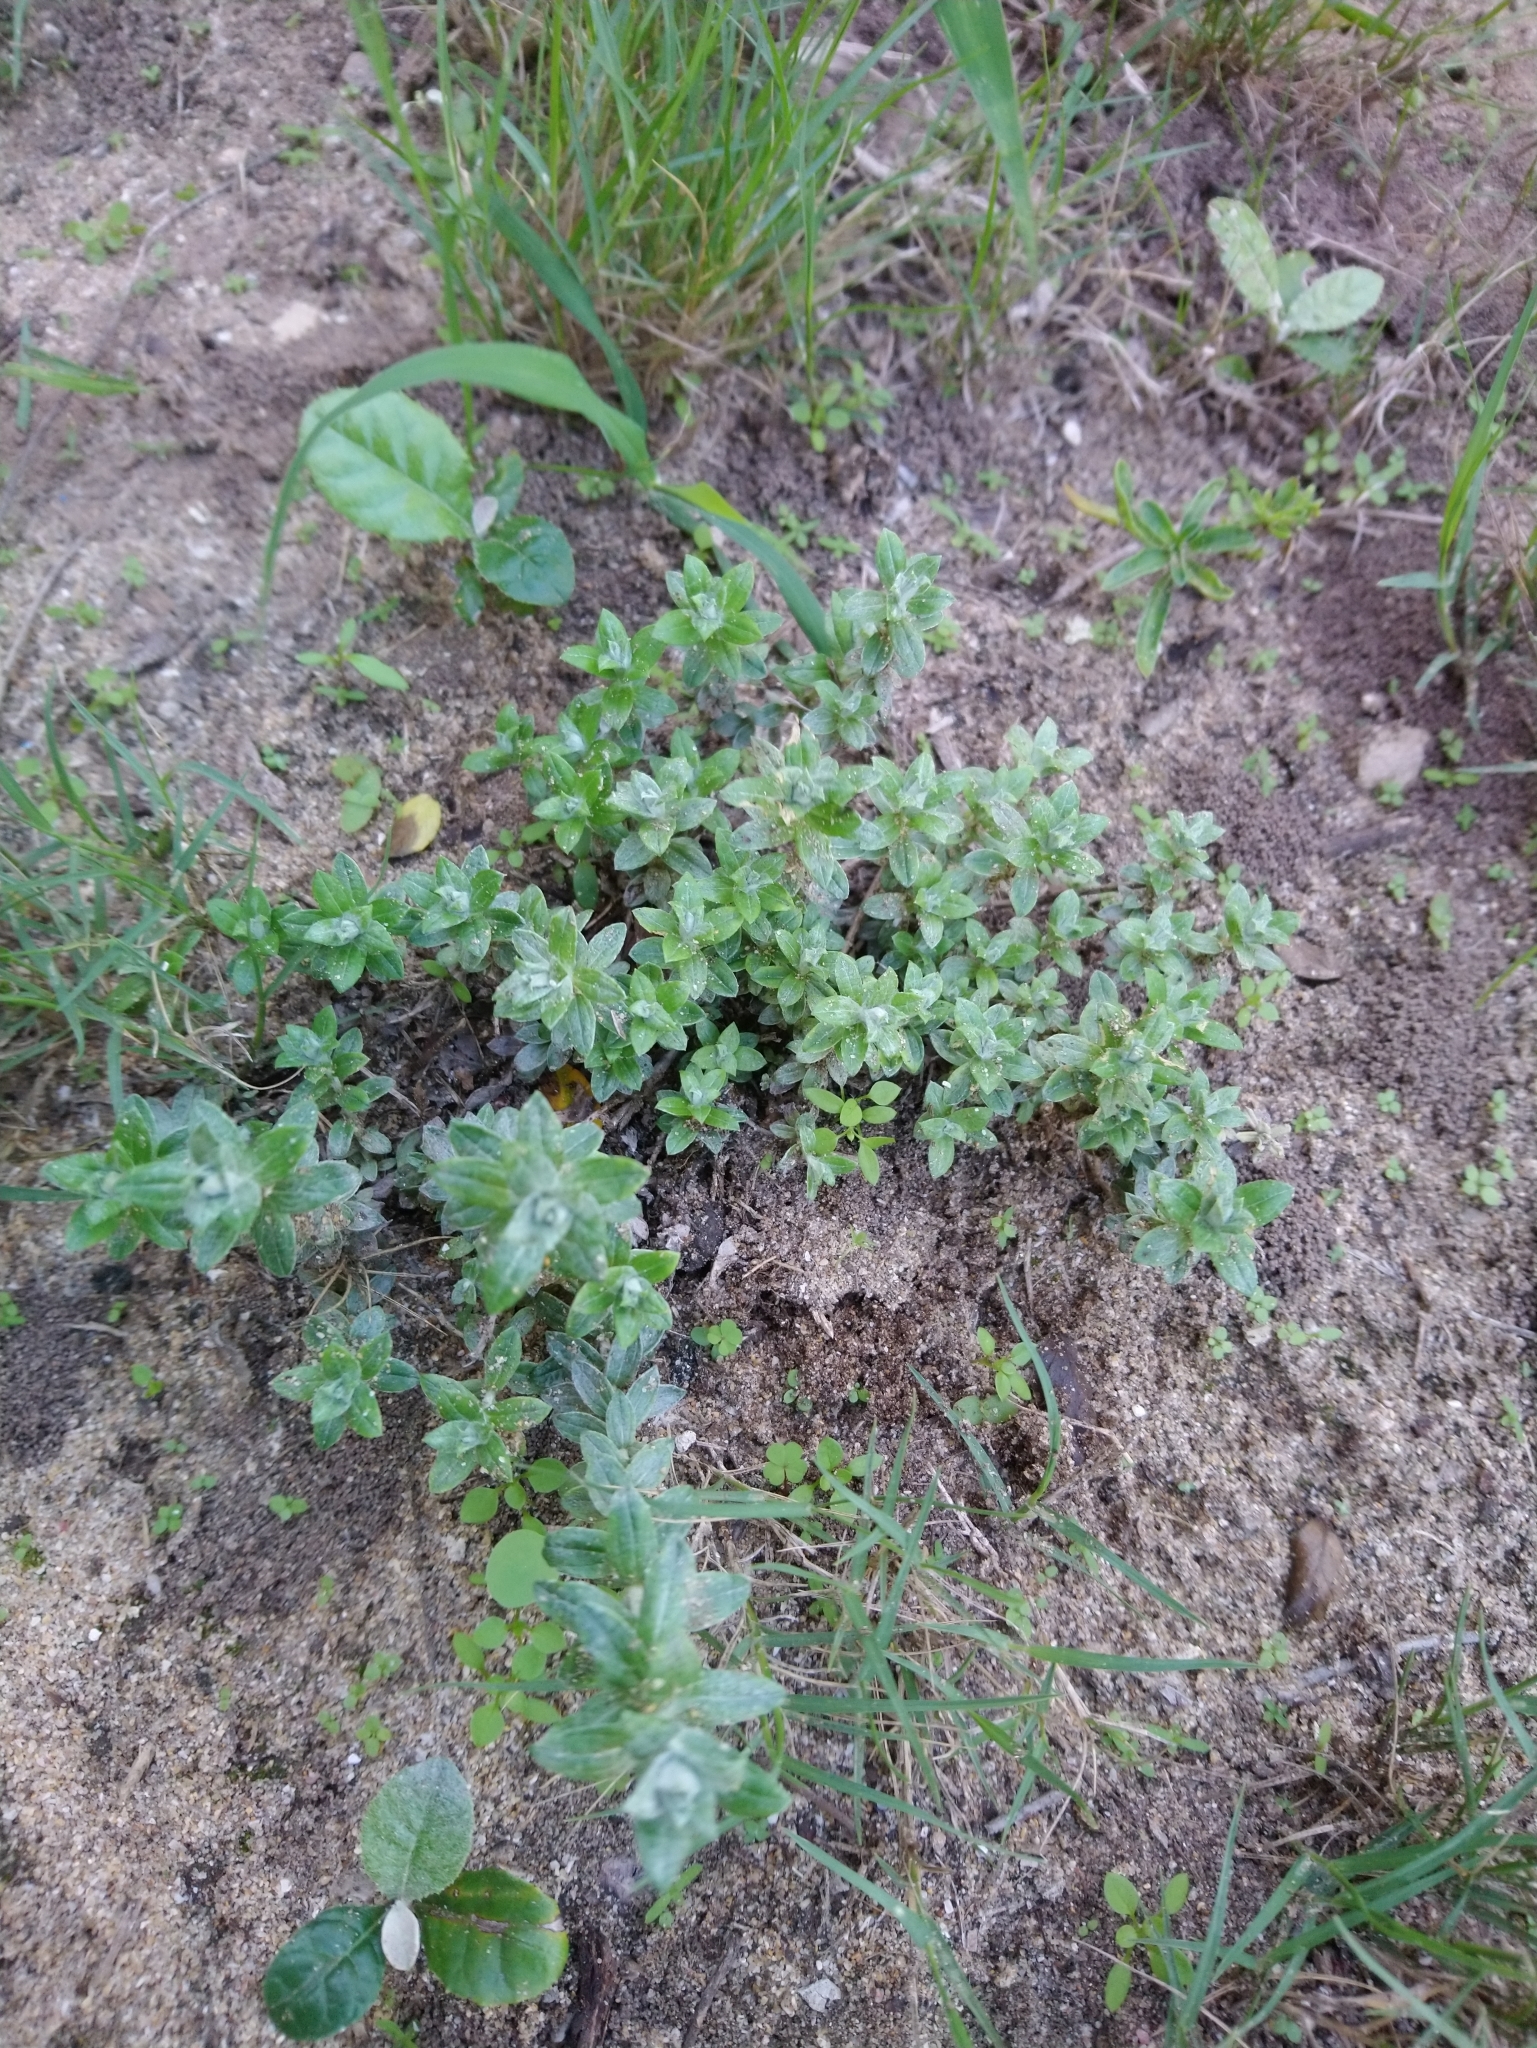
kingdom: Plantae
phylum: Tracheophyta
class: Magnoliopsida
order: Asterales
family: Asteraceae
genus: Helichrysum
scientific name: Helichrysum cymosum
